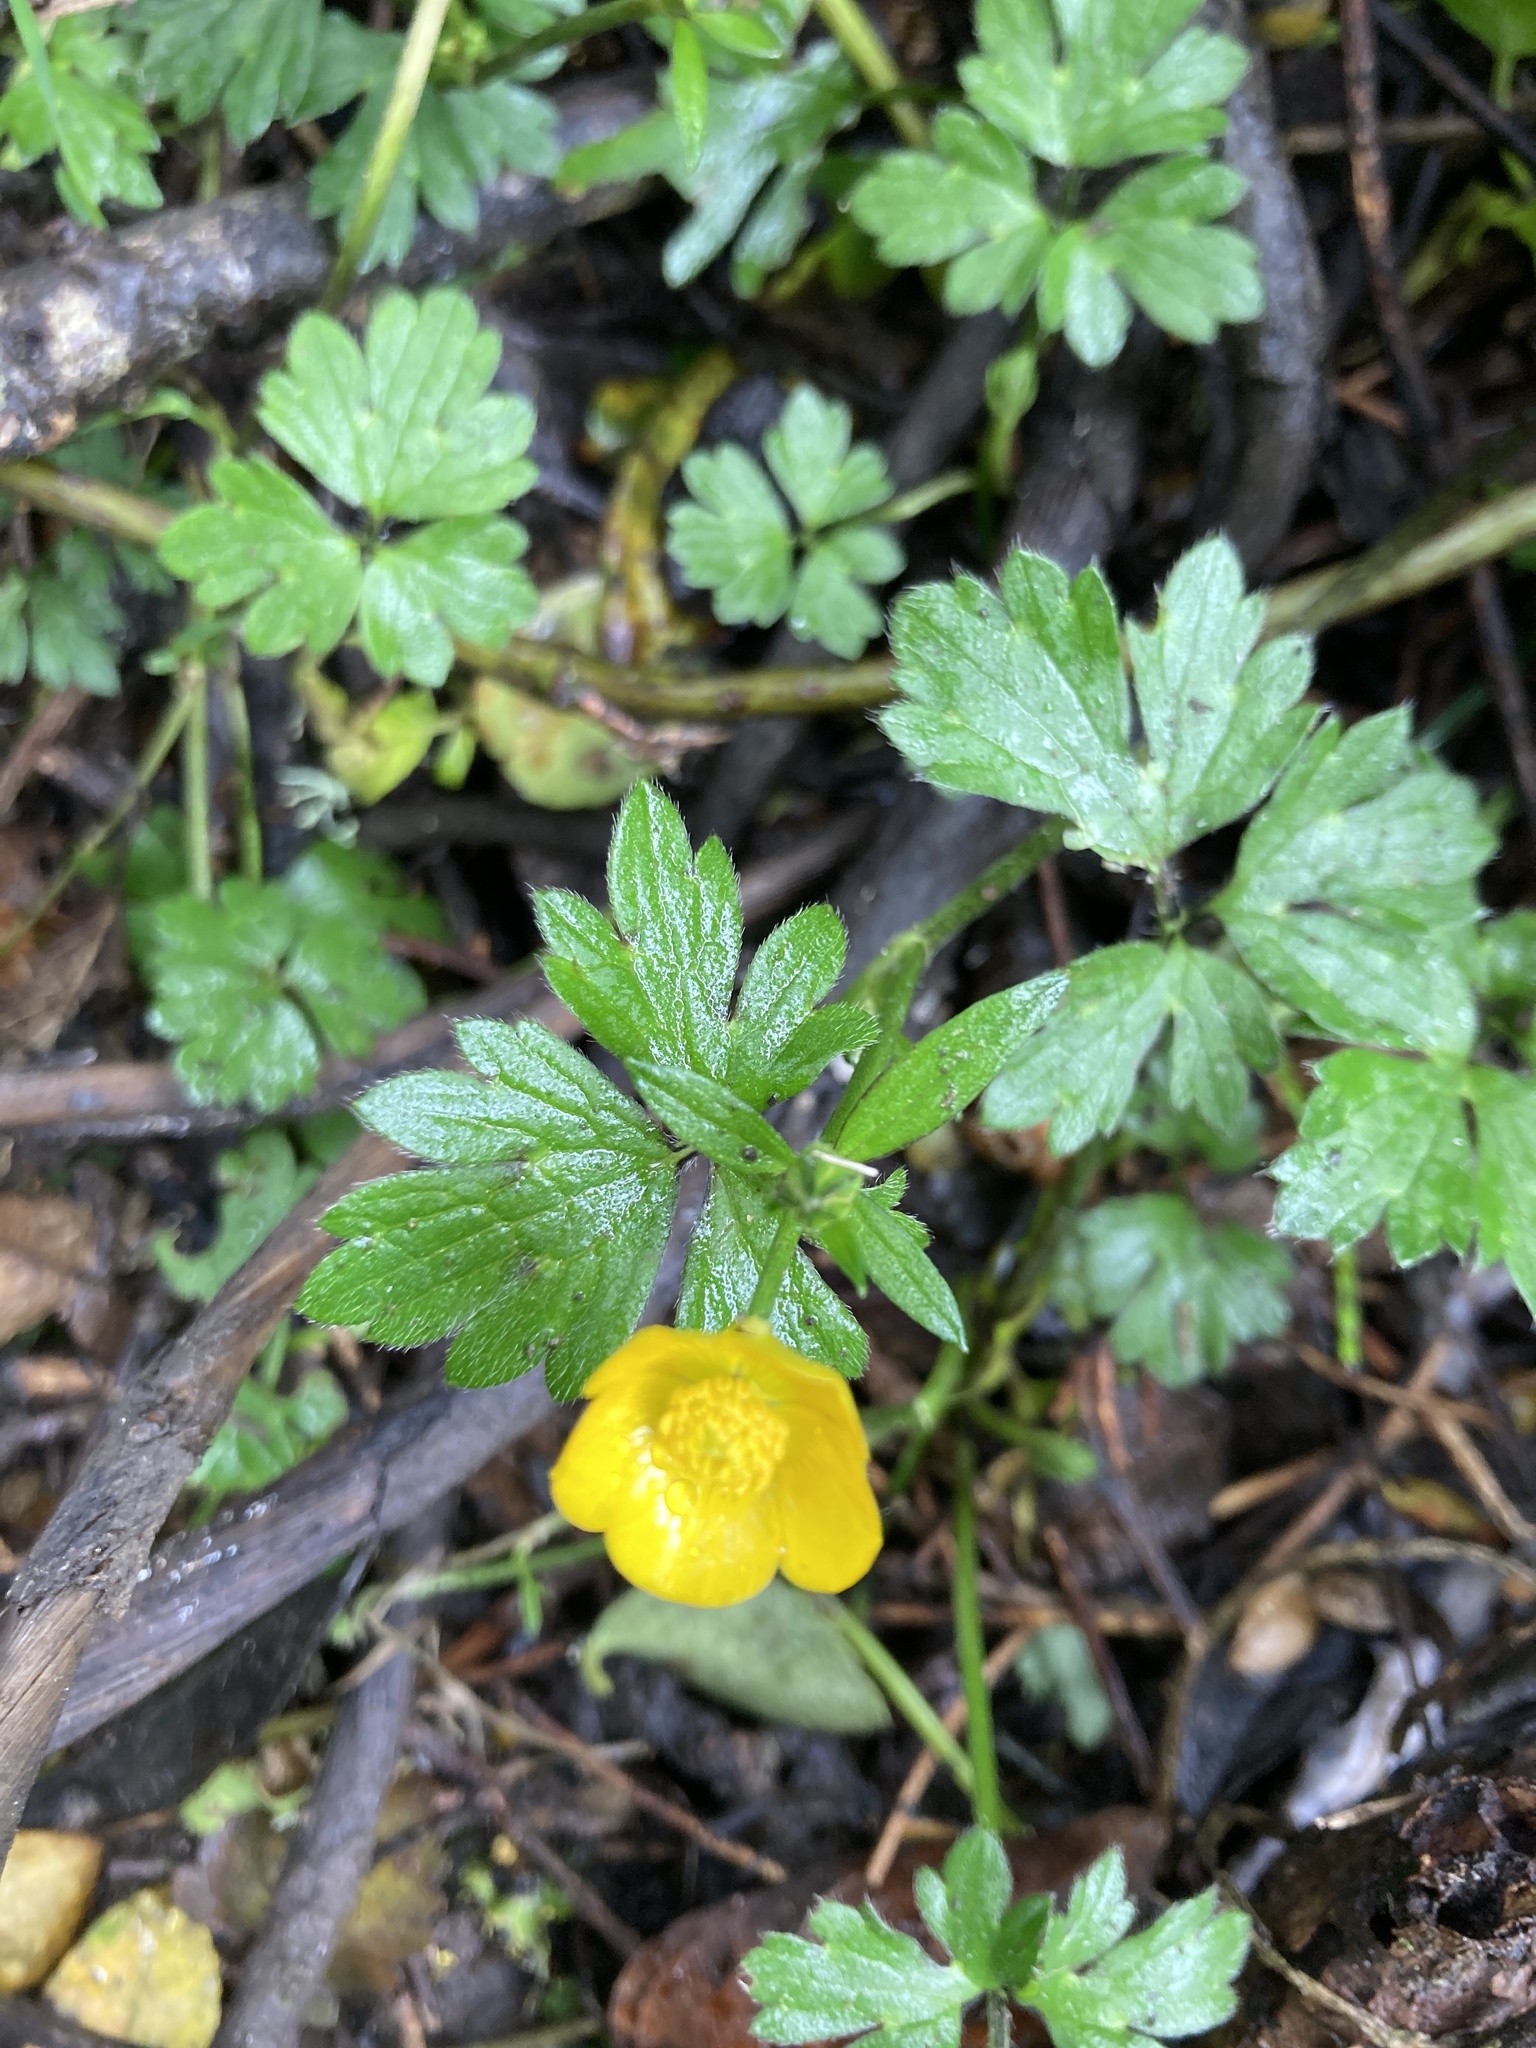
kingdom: Plantae
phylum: Tracheophyta
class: Magnoliopsida
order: Ranunculales
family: Ranunculaceae
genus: Ranunculus
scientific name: Ranunculus repens
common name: Creeping buttercup
